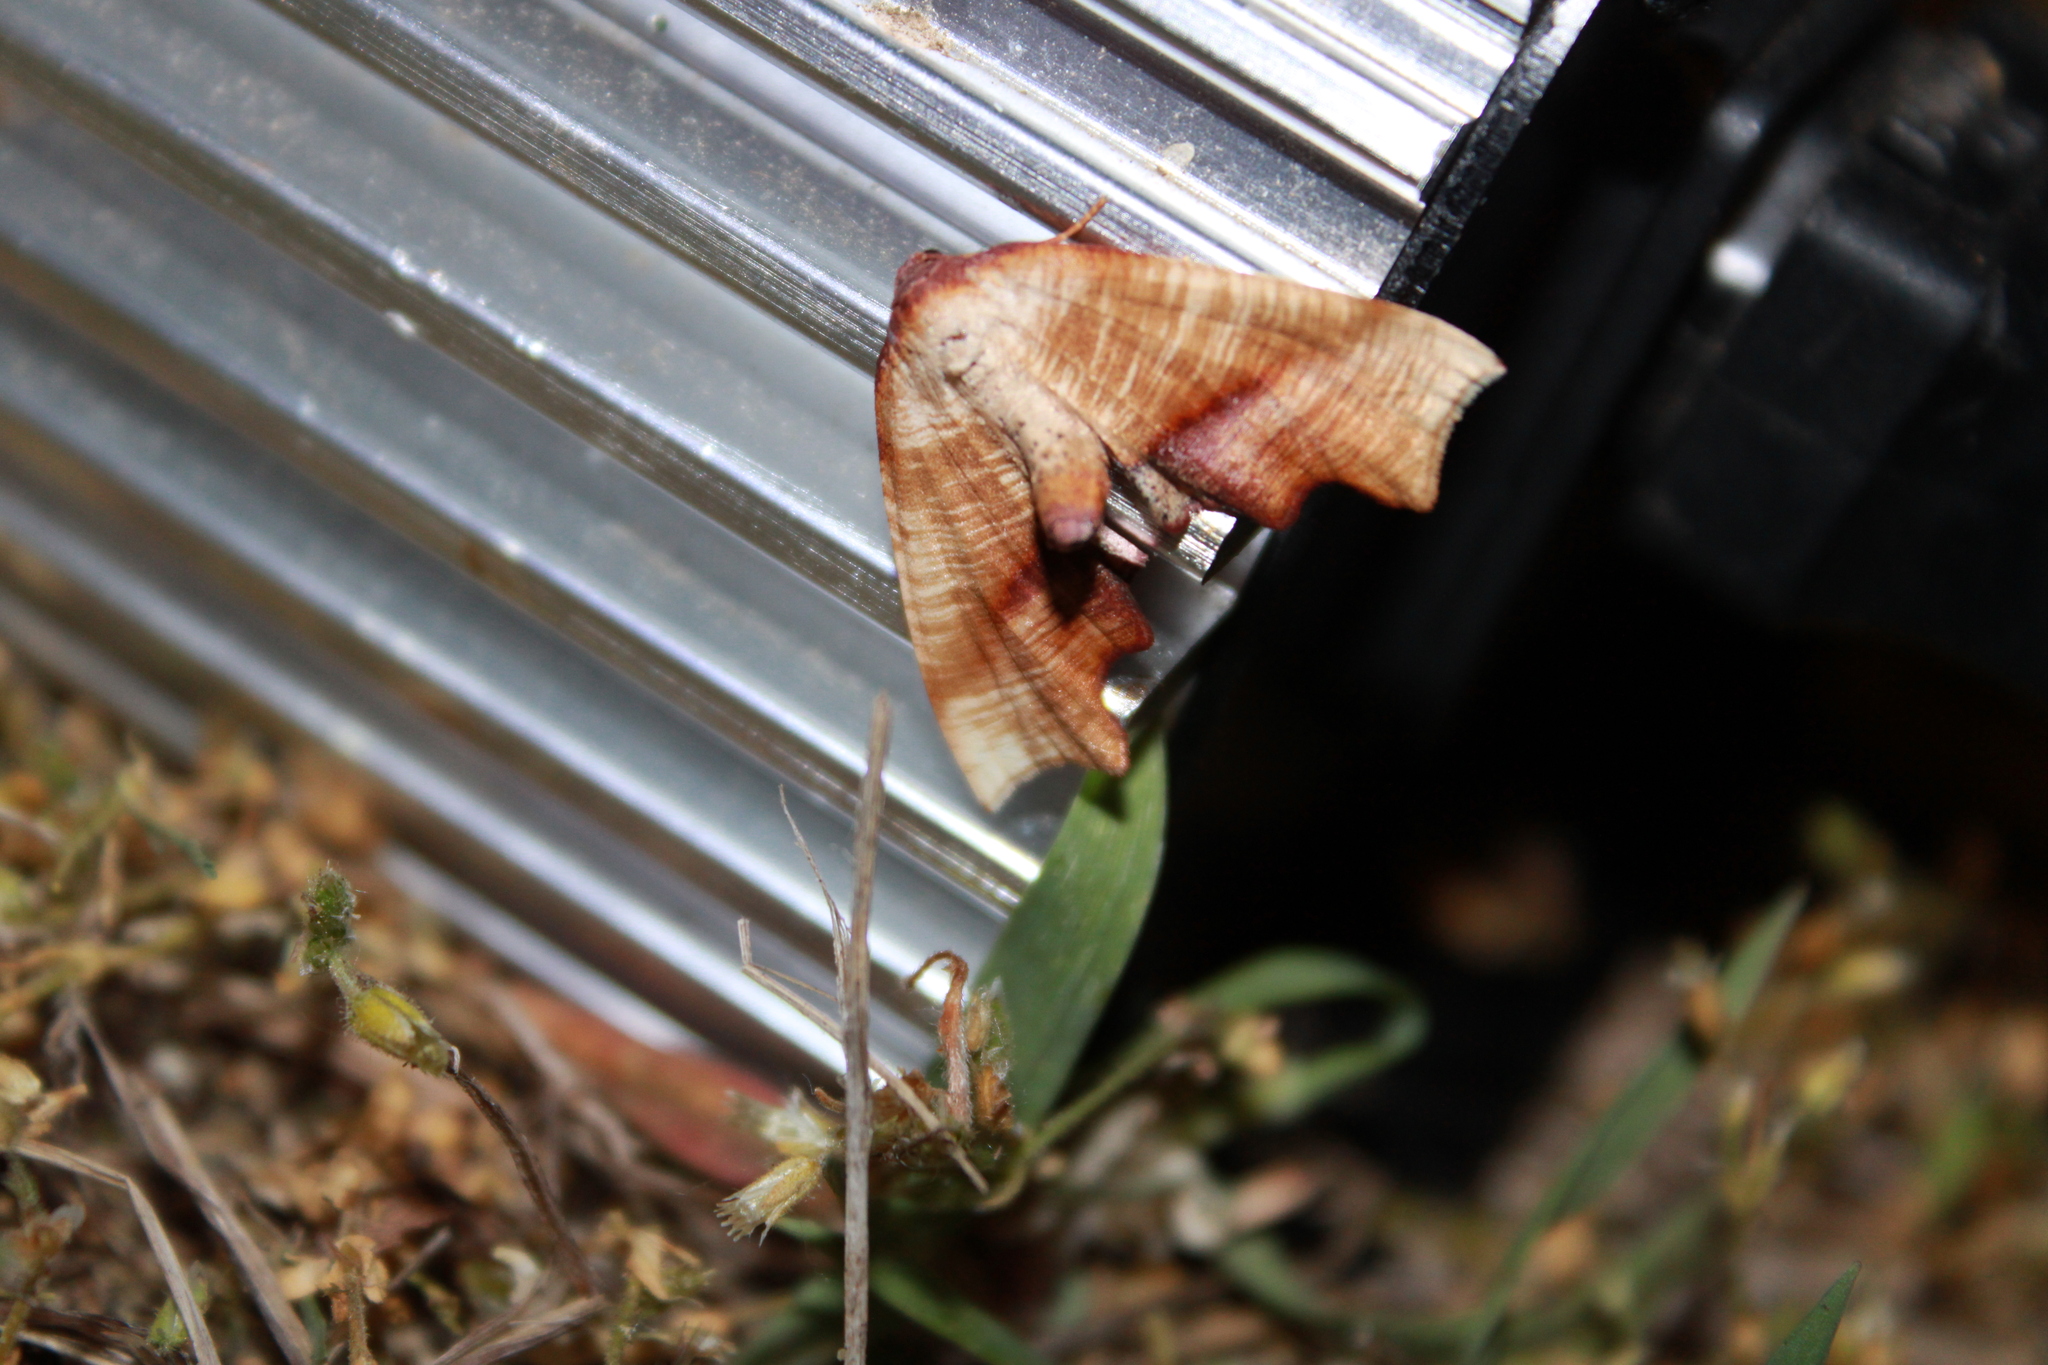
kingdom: Animalia
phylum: Arthropoda
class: Insecta
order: Lepidoptera
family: Geometridae
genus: Plagodis
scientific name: Plagodis fervidaria
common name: Fervid plagodis
